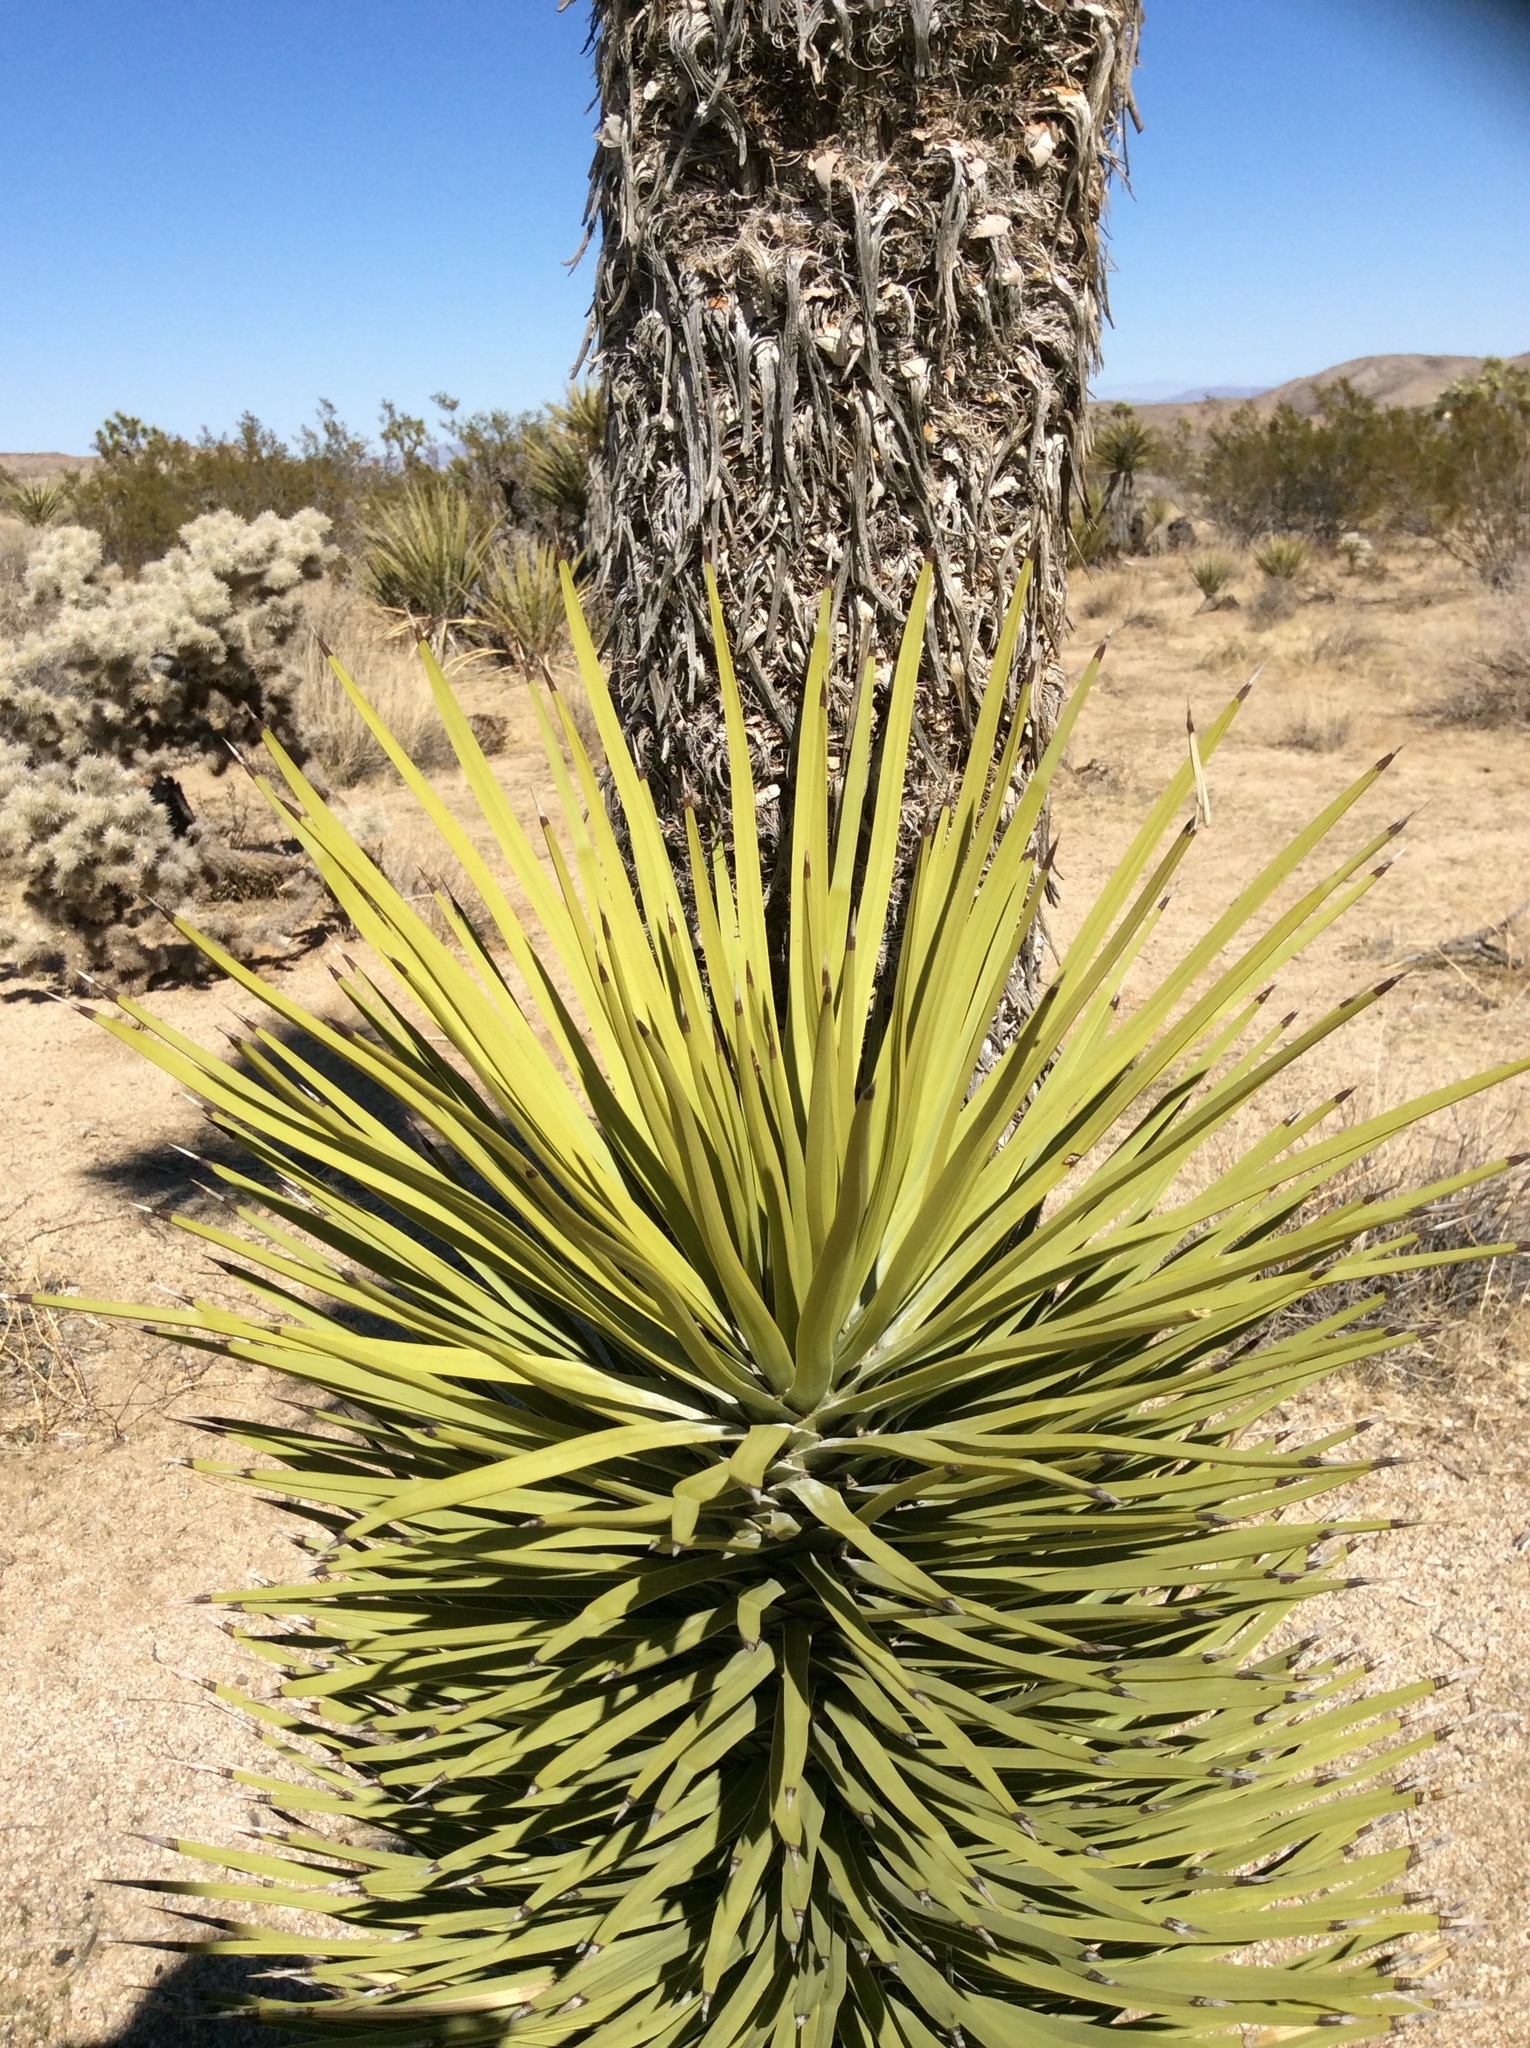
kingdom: Plantae
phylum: Tracheophyta
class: Liliopsida
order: Asparagales
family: Asparagaceae
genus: Yucca
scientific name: Yucca brevifolia
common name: Joshua tree
